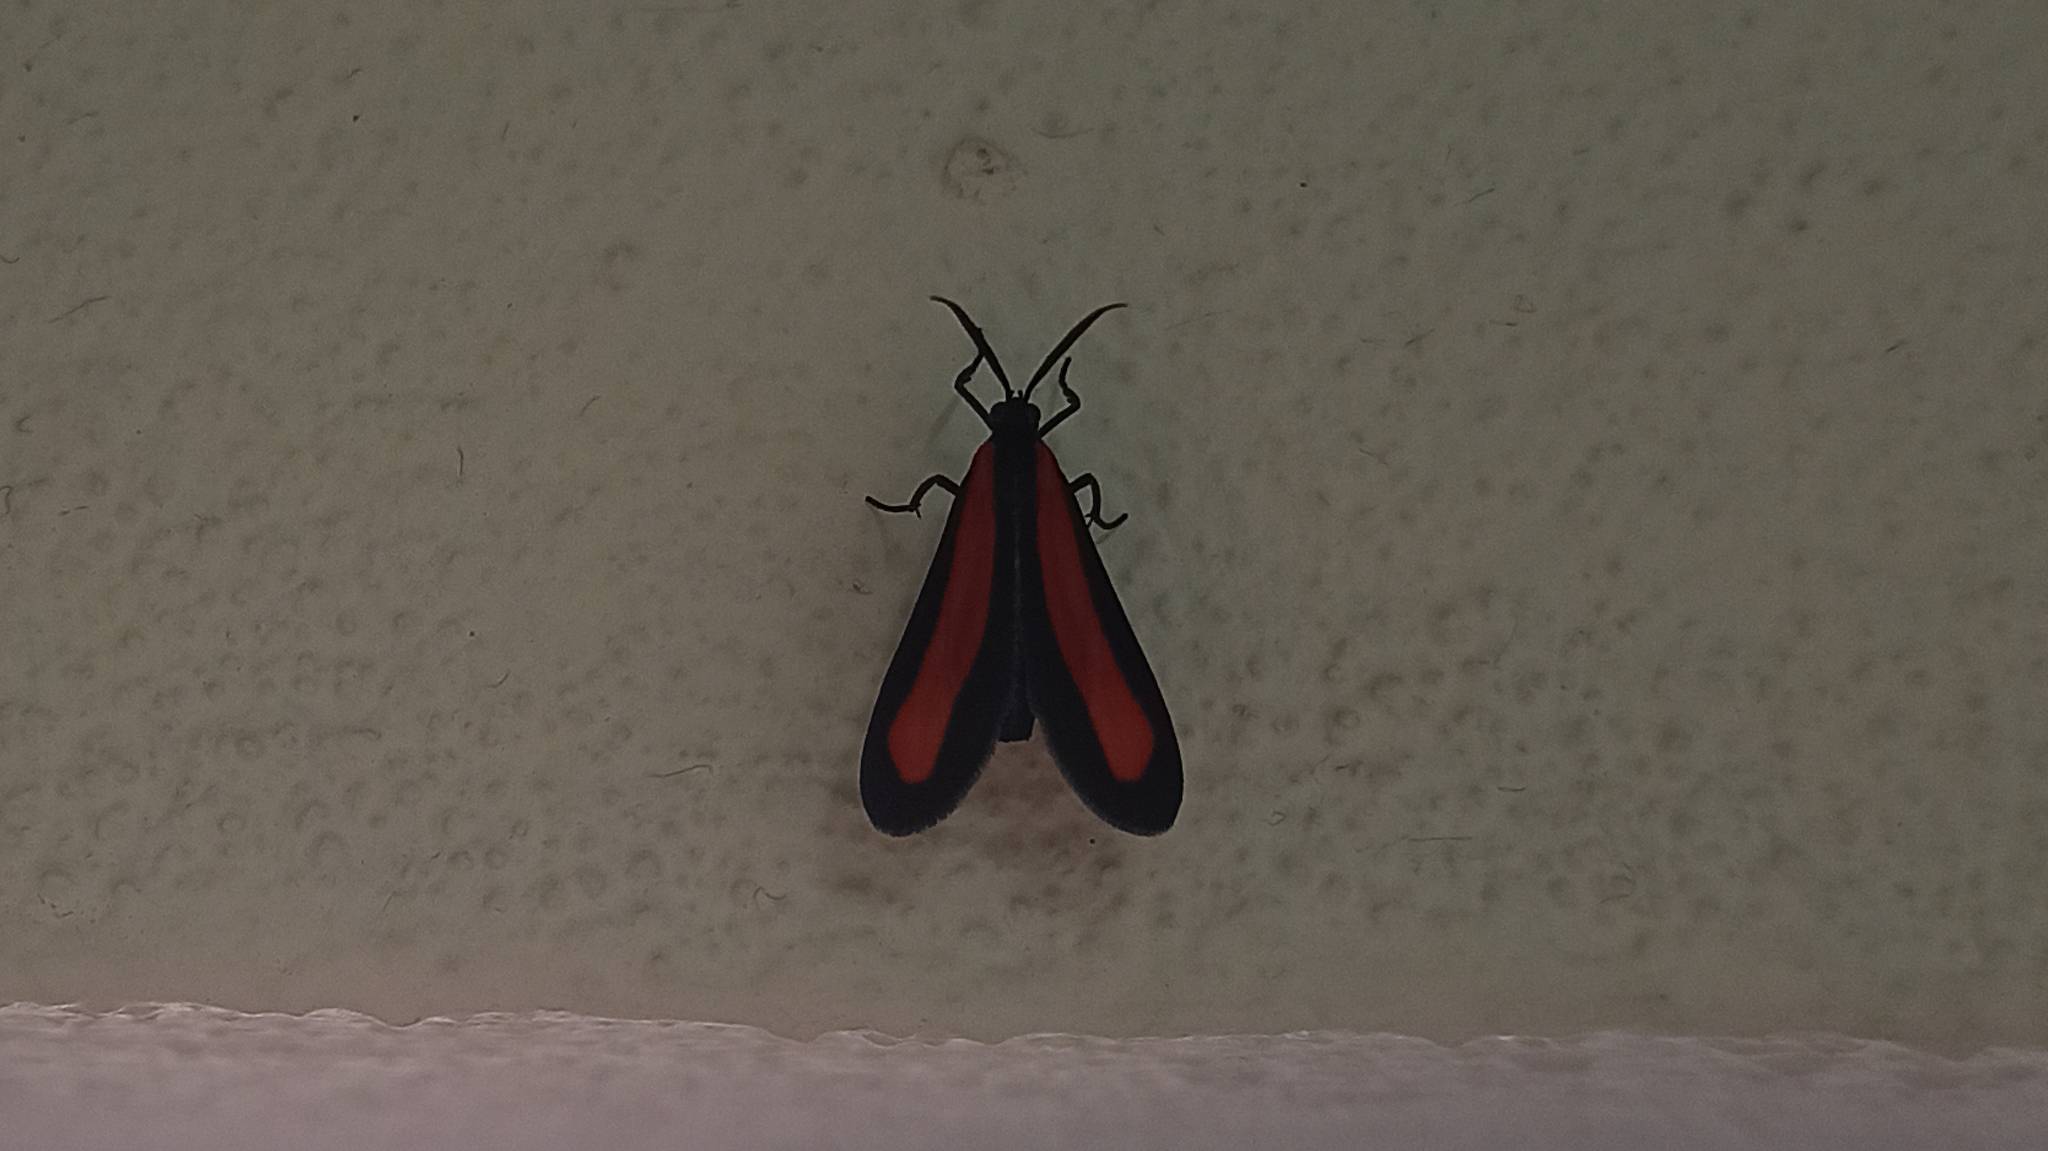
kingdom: Animalia
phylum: Arthropoda
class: Insecta
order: Lepidoptera
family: Erebidae
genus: Tipulodes
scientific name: Tipulodes ima
